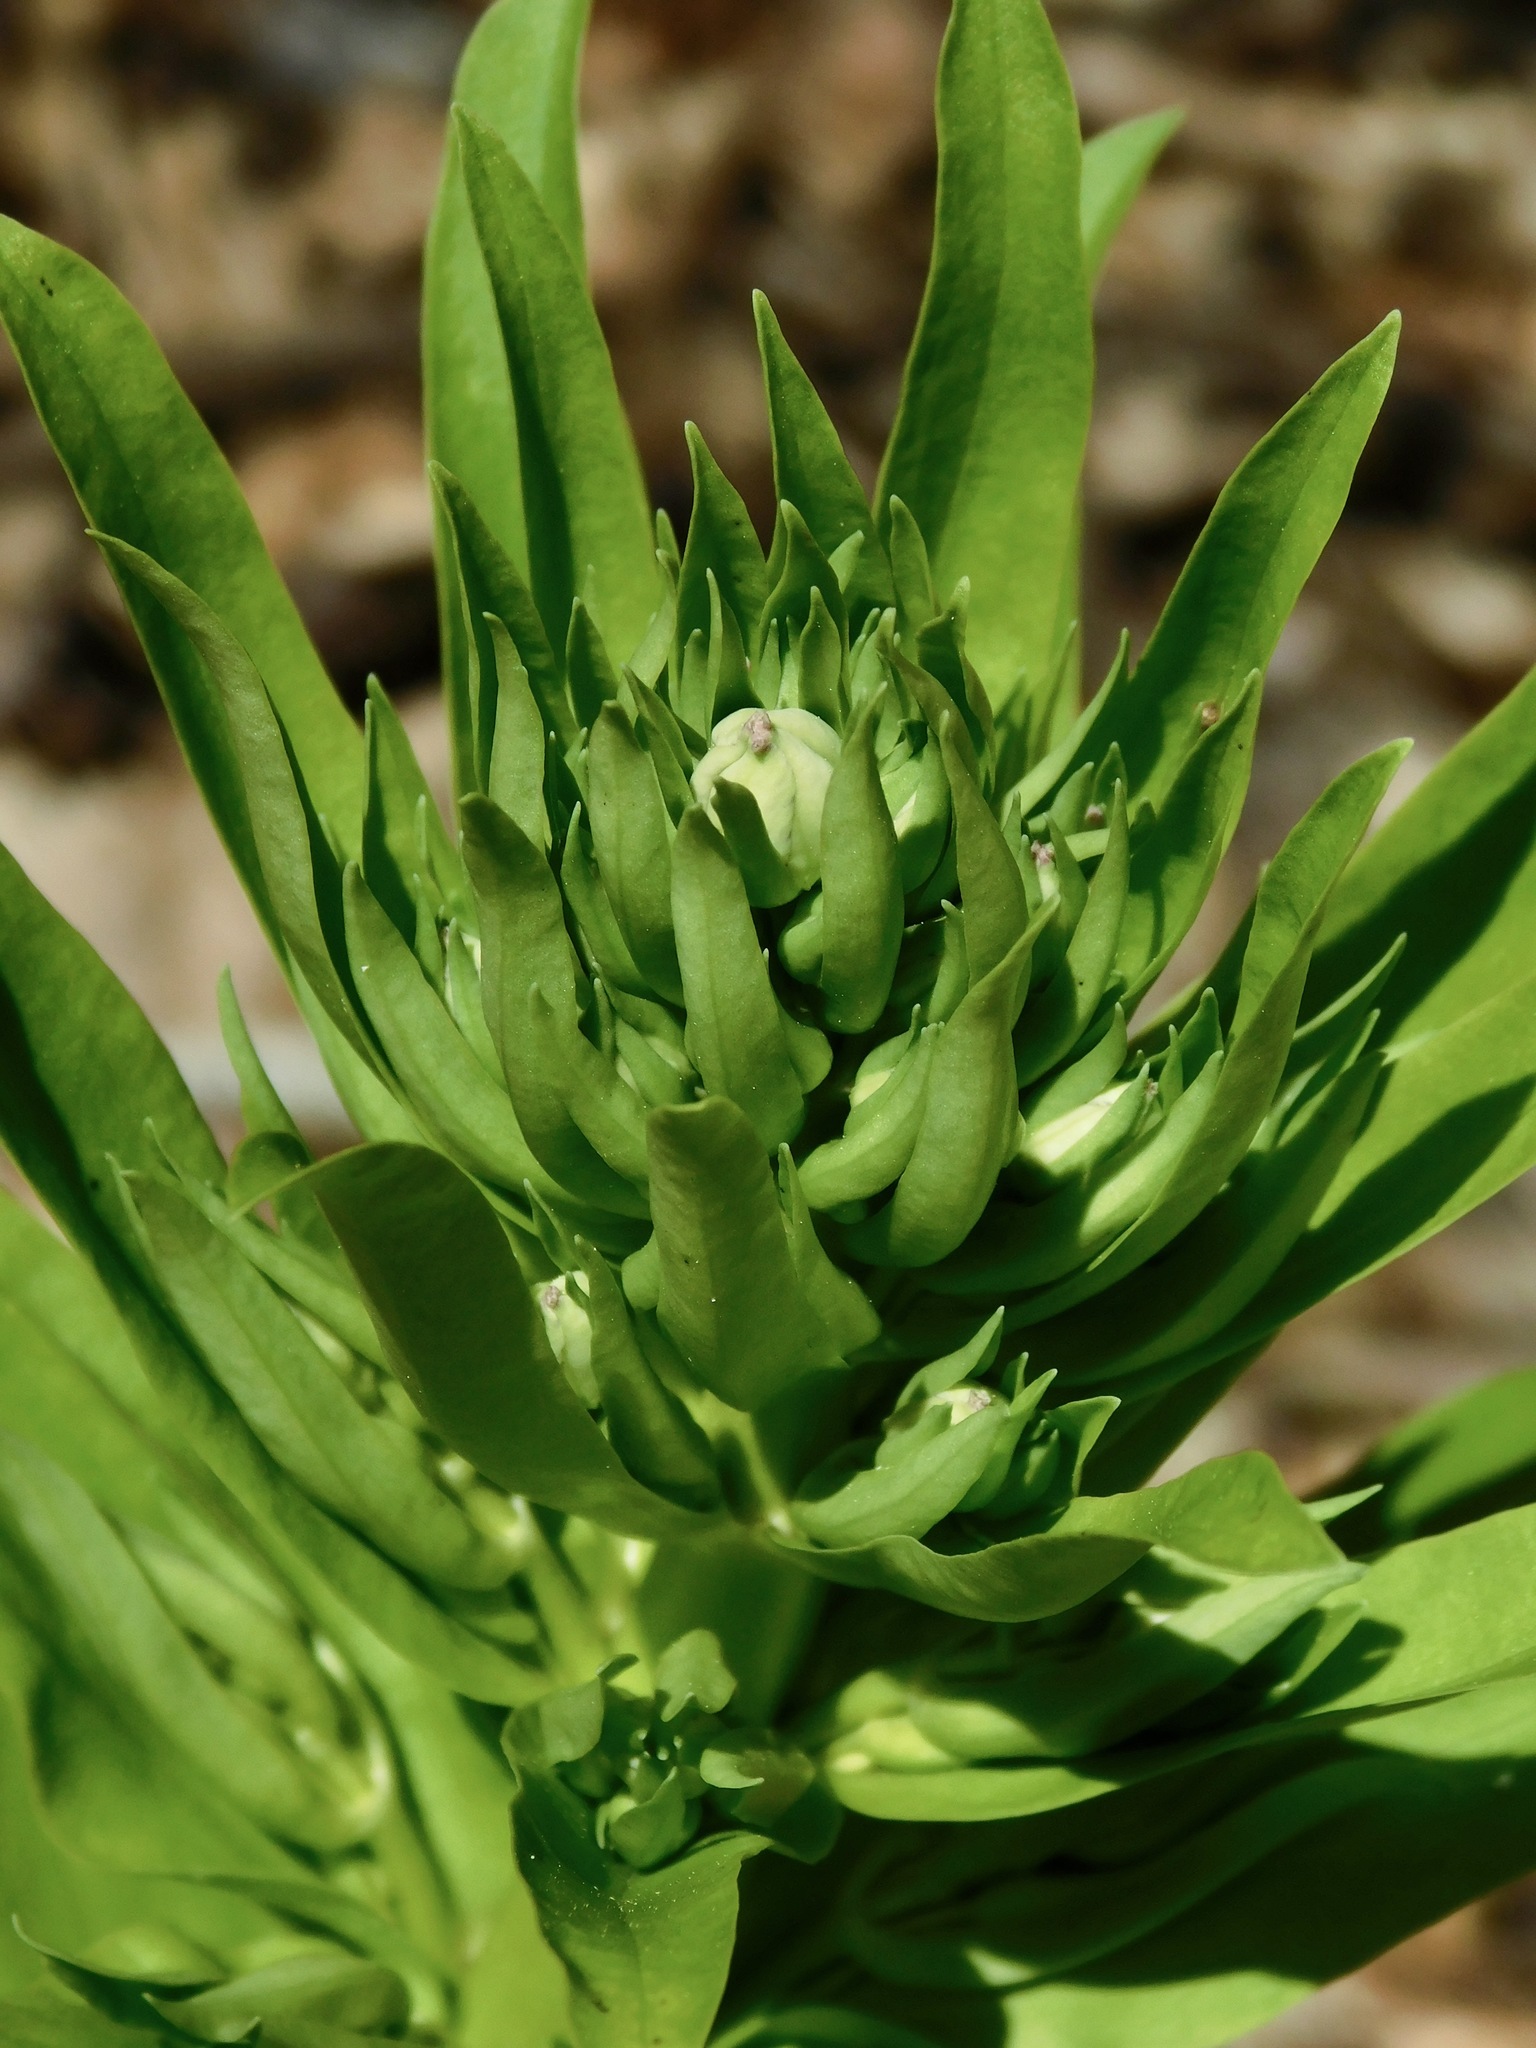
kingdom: Plantae
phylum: Tracheophyta
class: Magnoliopsida
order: Gentianales
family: Gentianaceae
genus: Frasera
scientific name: Frasera caroliniensis
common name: American columbo
